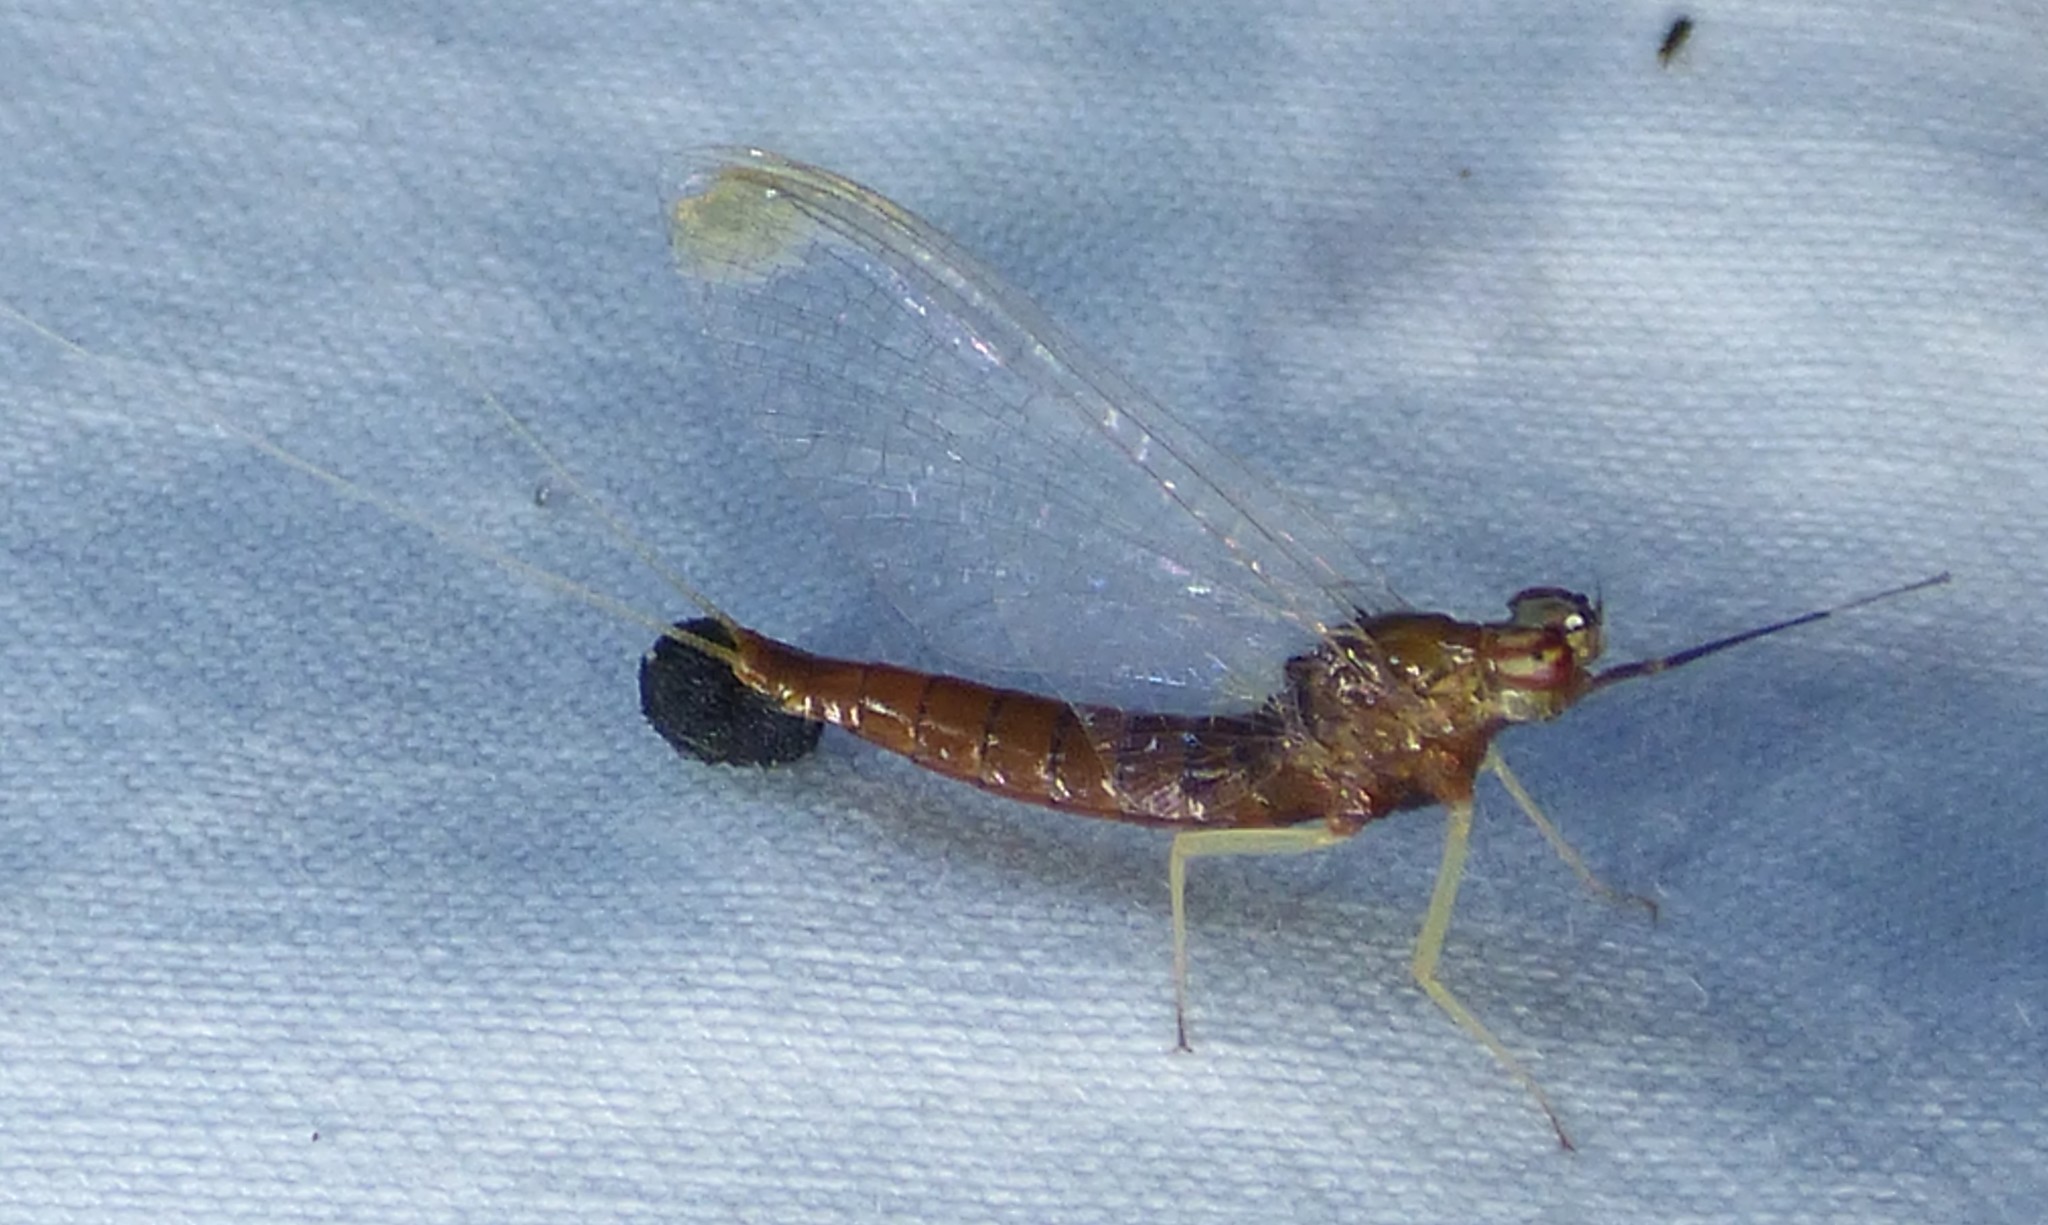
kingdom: Animalia
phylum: Arthropoda
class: Insecta
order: Ephemeroptera
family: Isonychiidae
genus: Isonychia
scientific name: Isonychia bicolor
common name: Mahogany dun
